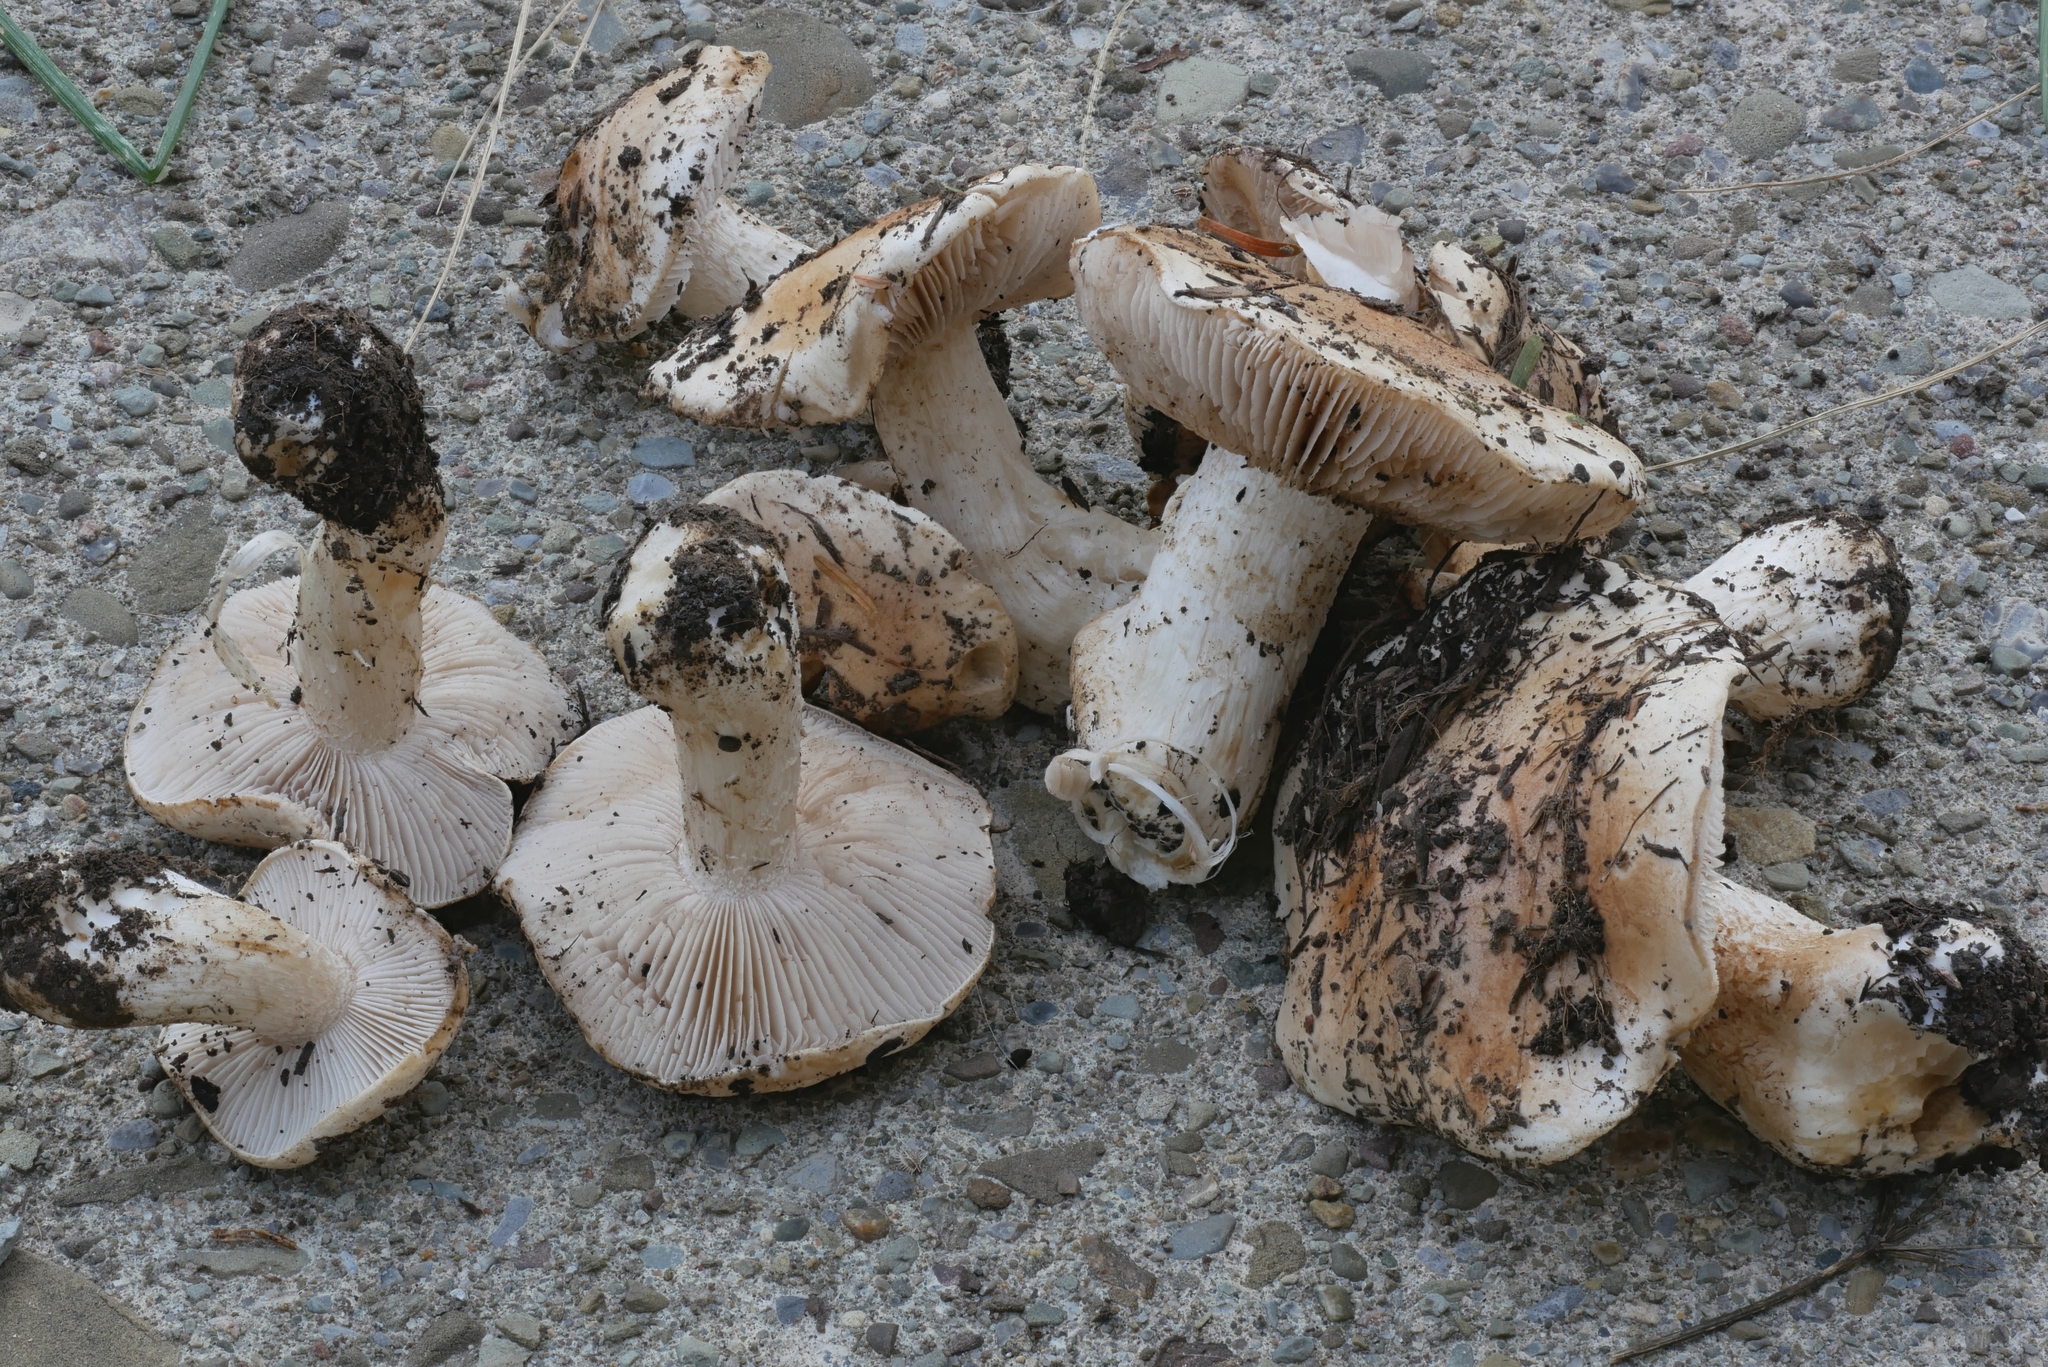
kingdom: Fungi
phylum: Basidiomycota
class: Agaricomycetes
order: Agaricales
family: Hymenogastraceae
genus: Hebeloma
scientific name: Hebeloma crustuliniforme
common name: Poison pie
